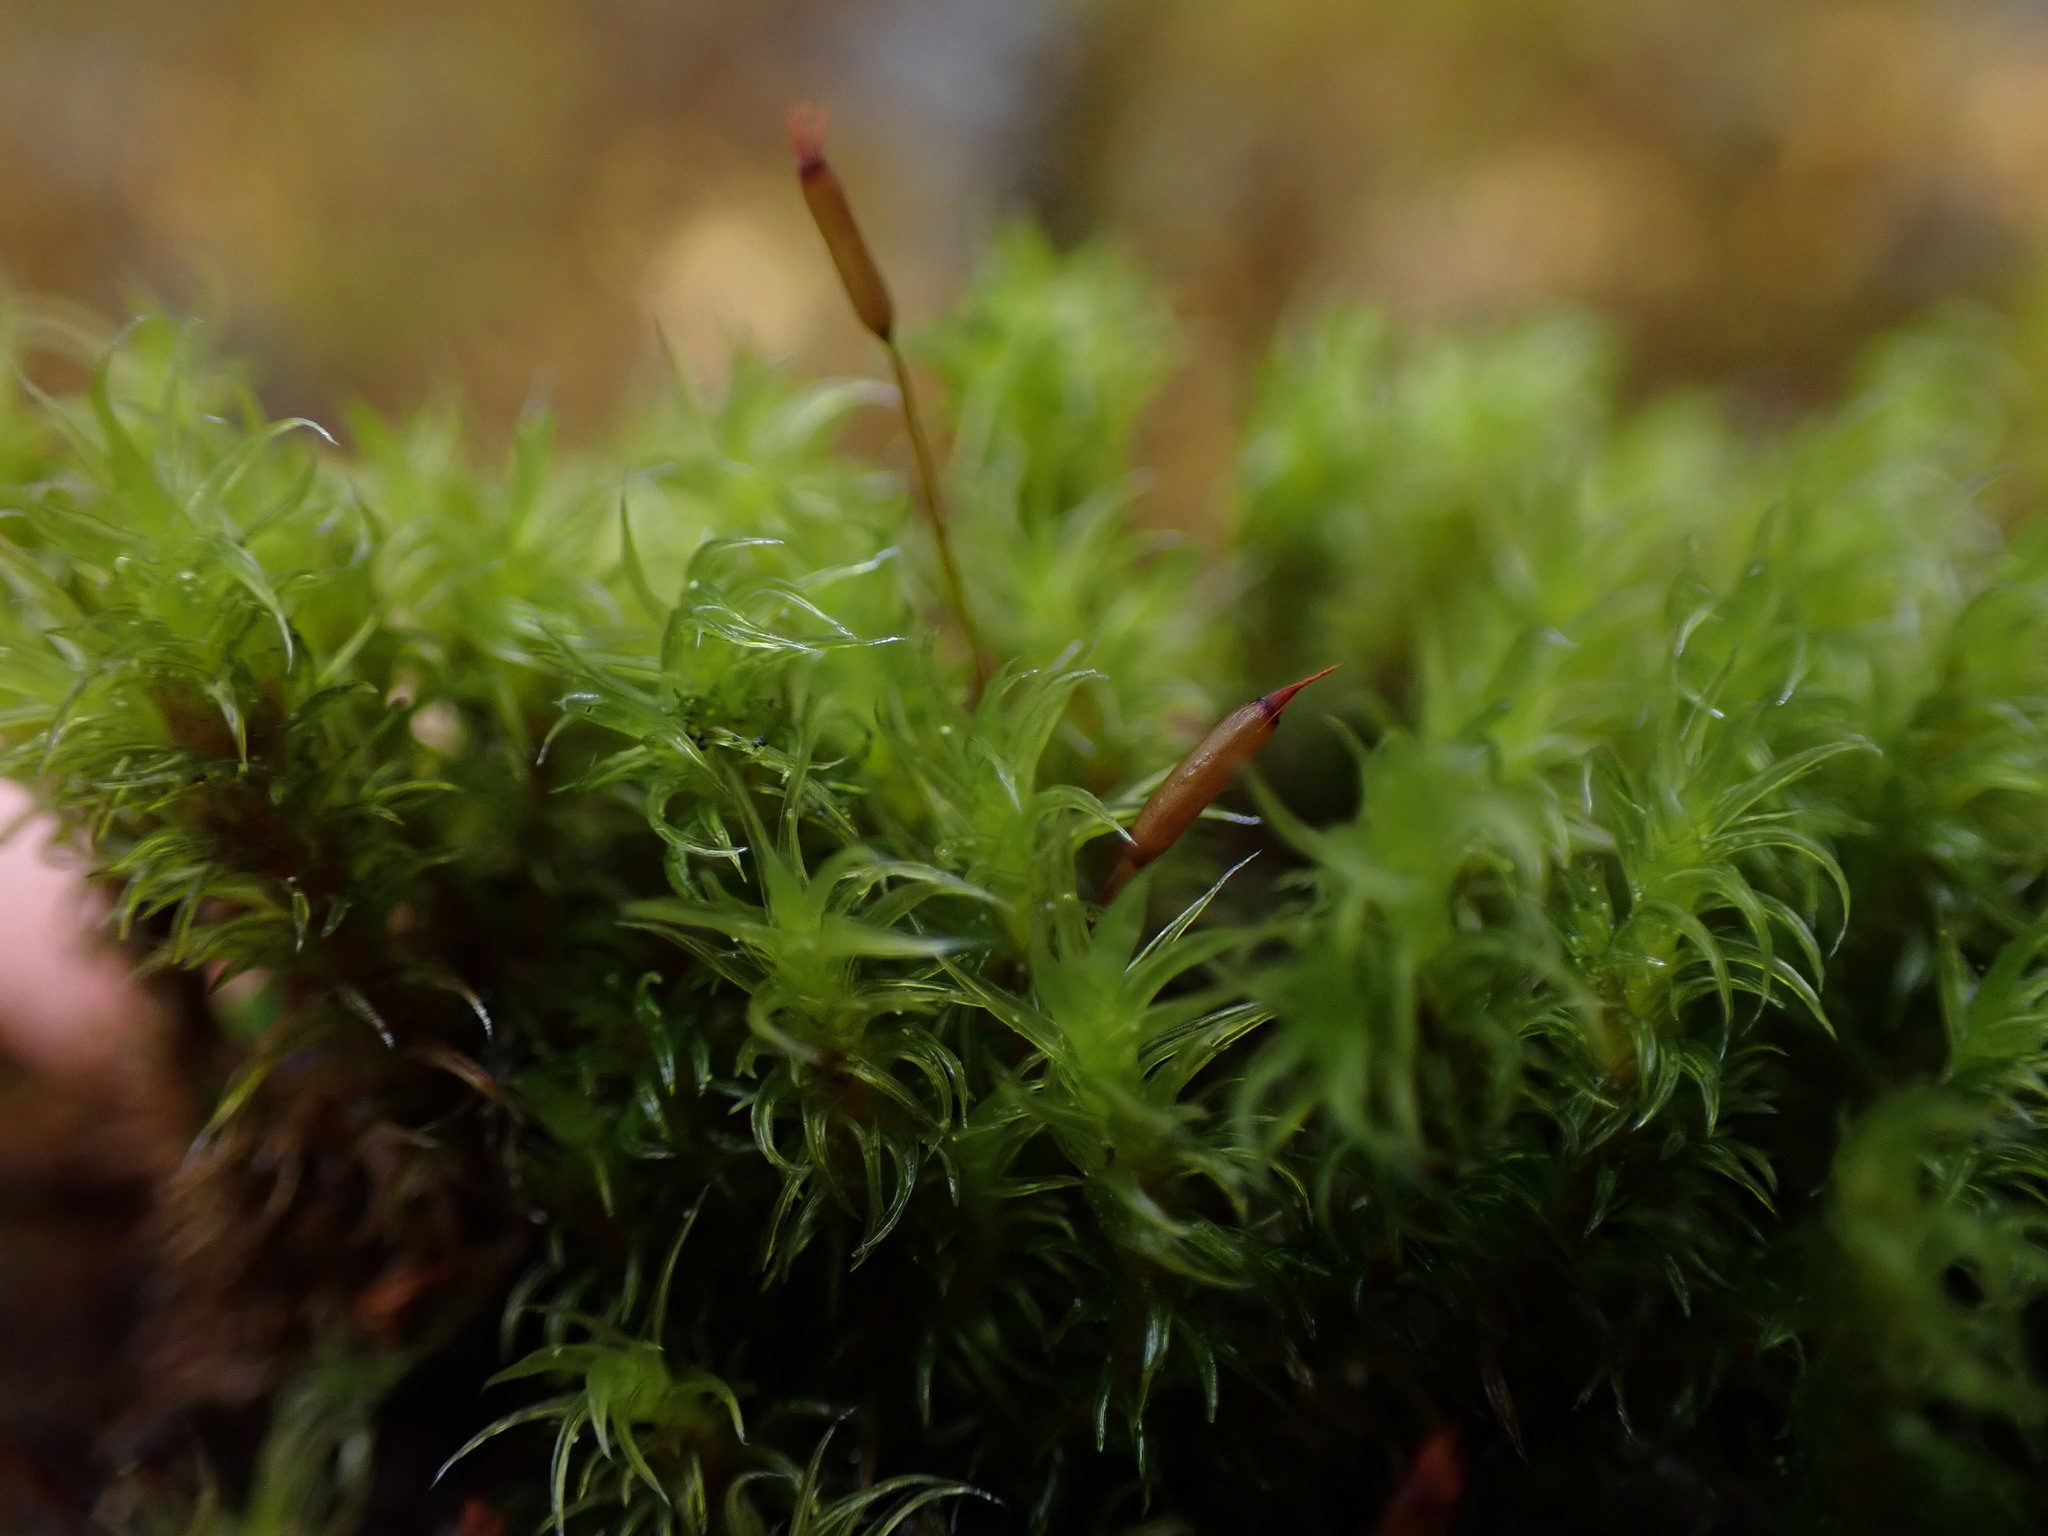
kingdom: Plantae
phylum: Bryophyta
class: Bryopsida
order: Grimmiales
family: Grimmiaceae
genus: Frisvollia
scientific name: Frisvollia varia
